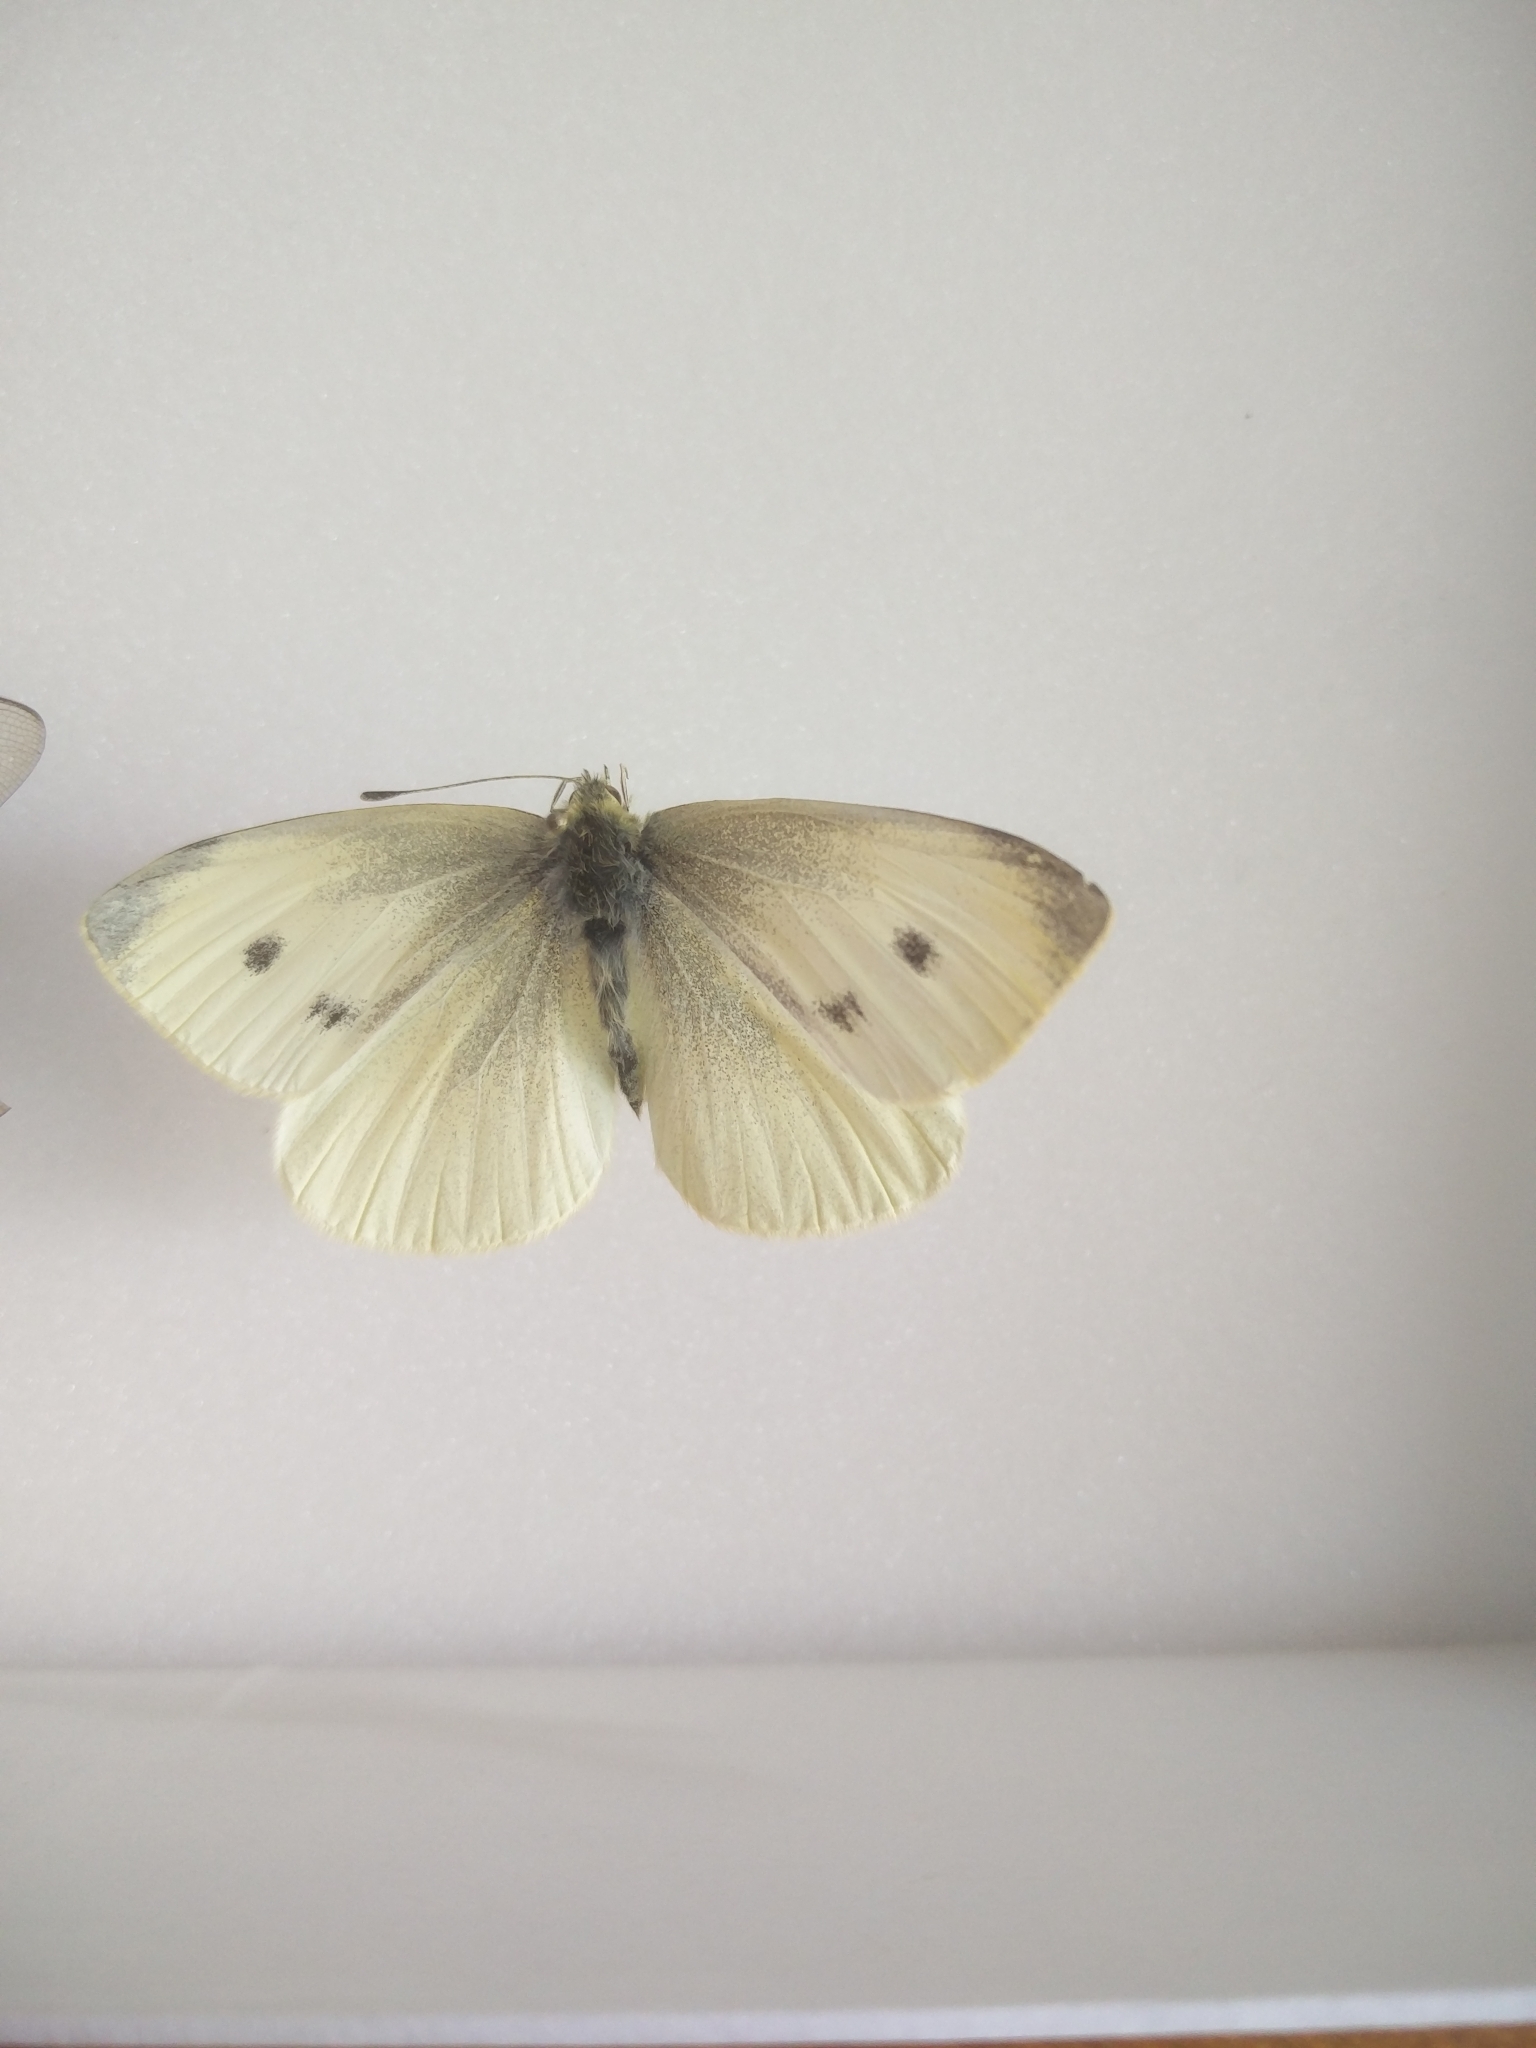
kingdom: Animalia
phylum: Arthropoda
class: Insecta
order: Lepidoptera
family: Pieridae
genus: Pieris
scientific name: Pieris rapae
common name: Small white
